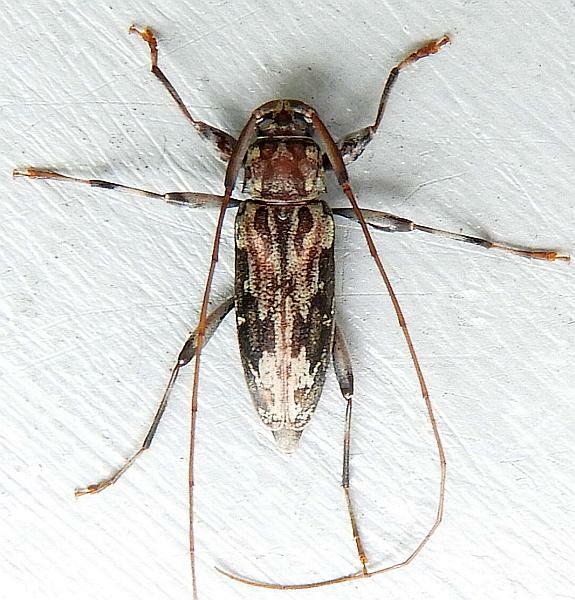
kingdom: Animalia
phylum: Arthropoda
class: Insecta
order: Coleoptera
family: Cerambycidae
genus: Lepturges
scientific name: Lepturges confluens
